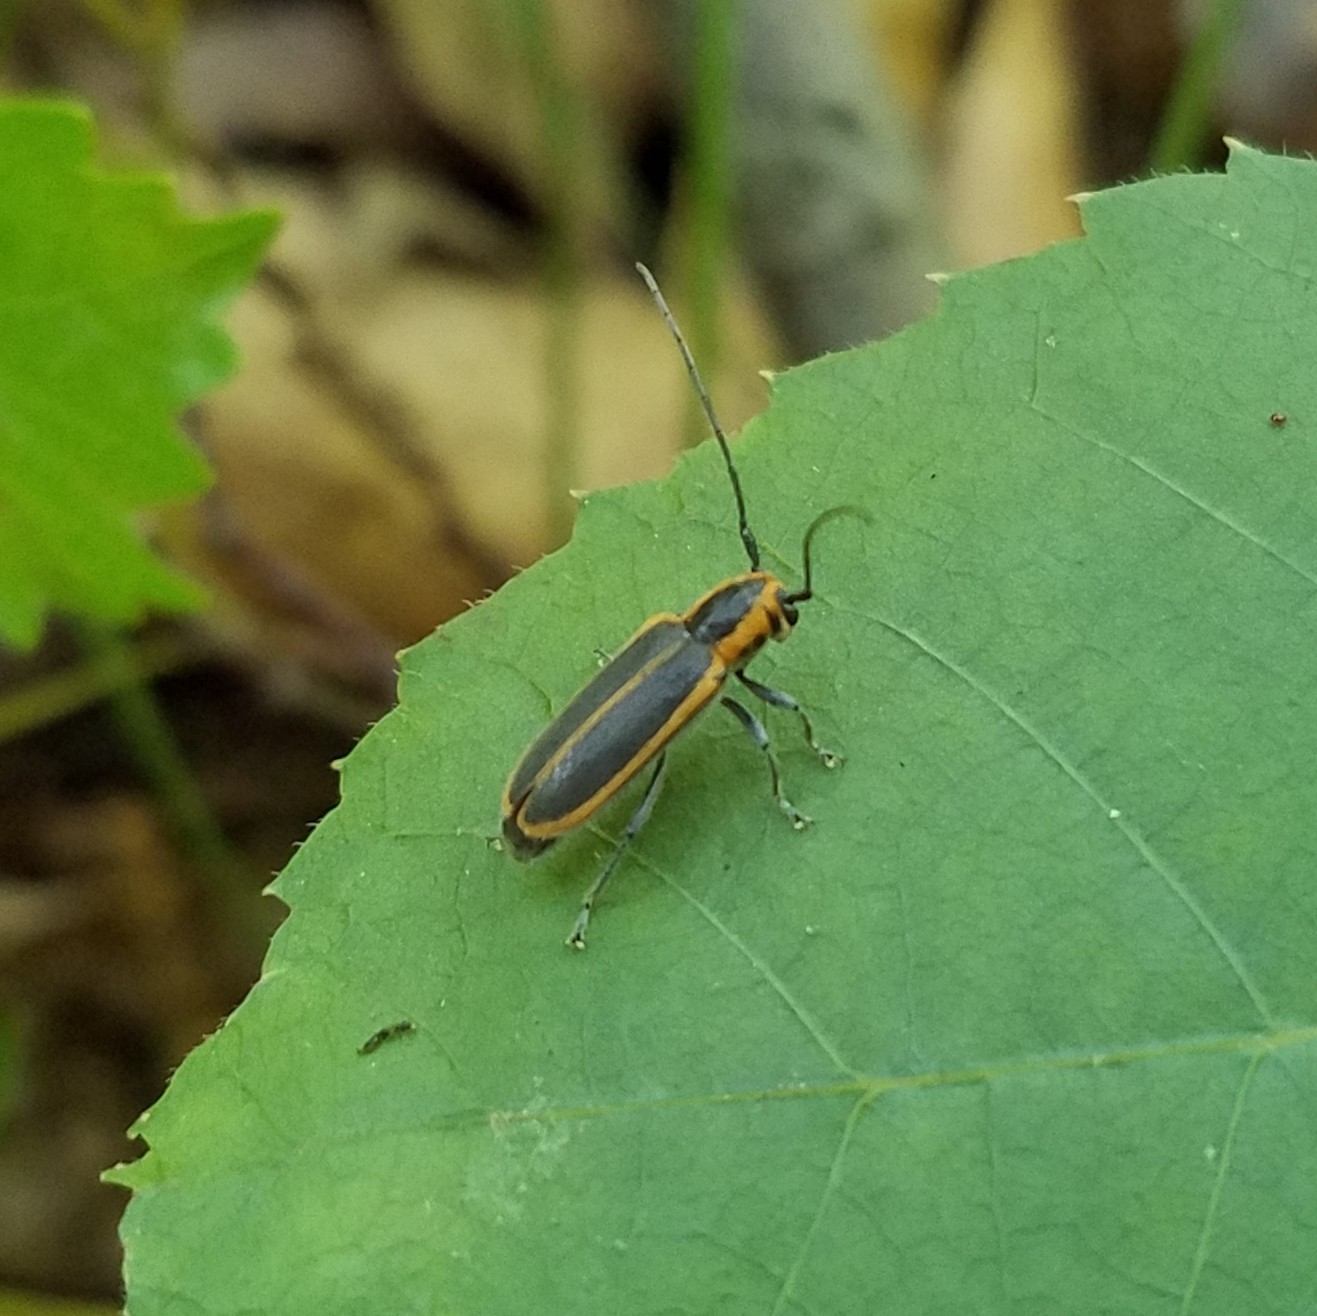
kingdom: Animalia
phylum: Arthropoda
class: Insecta
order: Coleoptera
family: Cerambycidae
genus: Saperda
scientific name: Saperda lateralis
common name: Red-edged saperda
